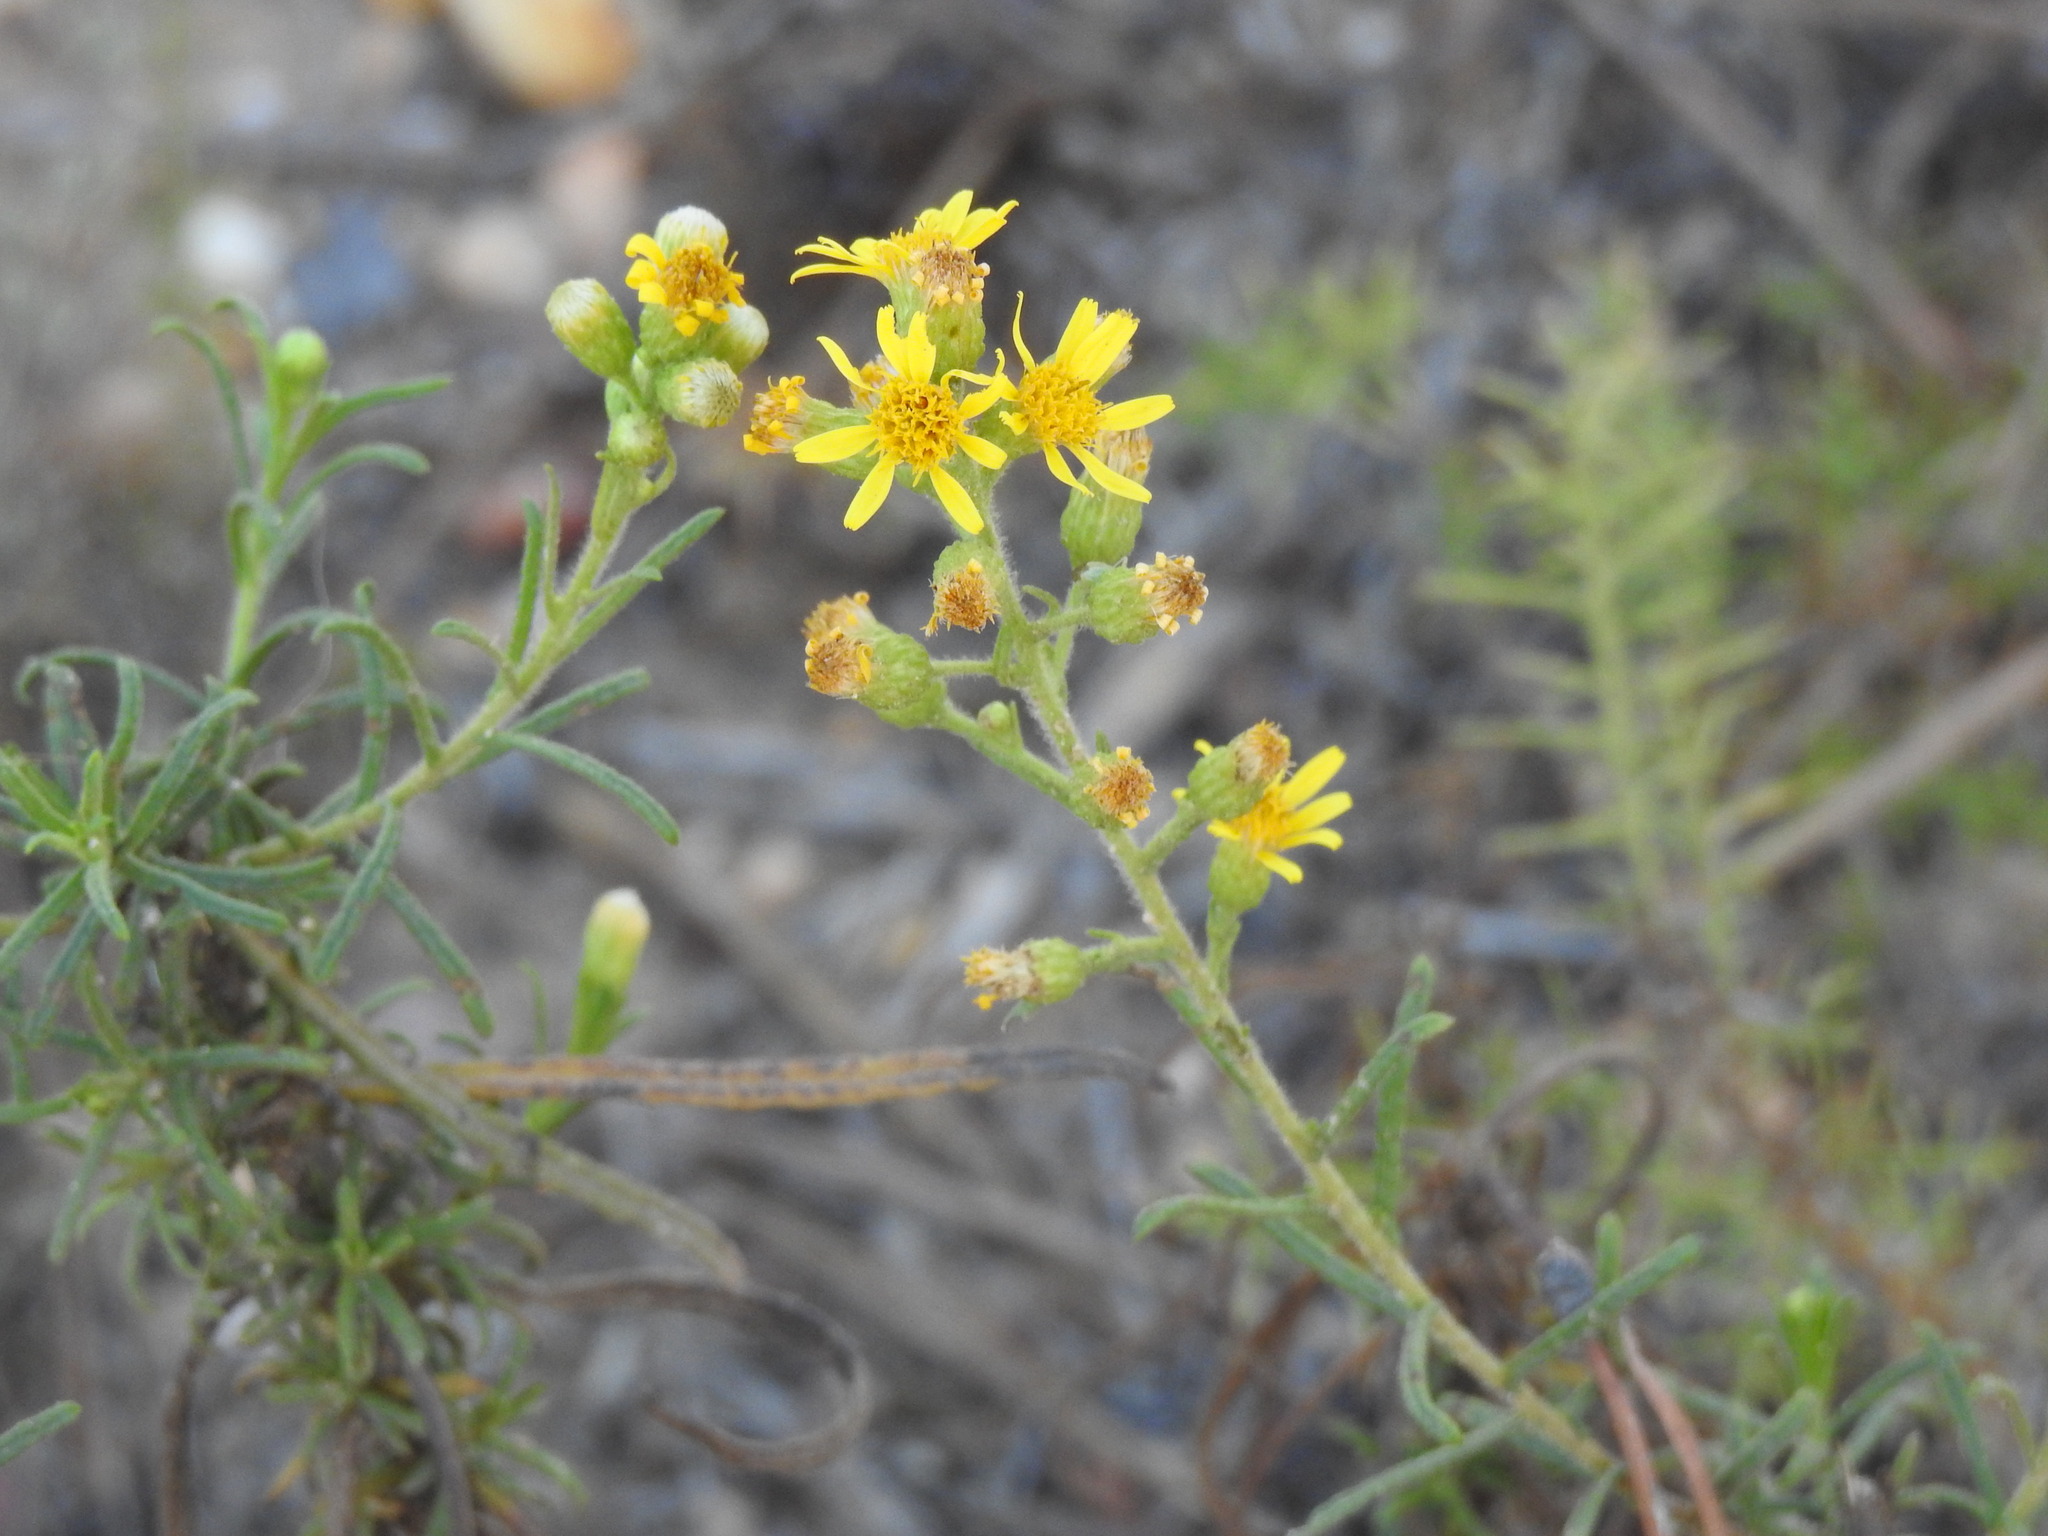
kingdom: Plantae
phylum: Tracheophyta
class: Magnoliopsida
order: Asterales
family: Asteraceae
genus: Dittrichia
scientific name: Dittrichia viscosa
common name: Woody fleabane
